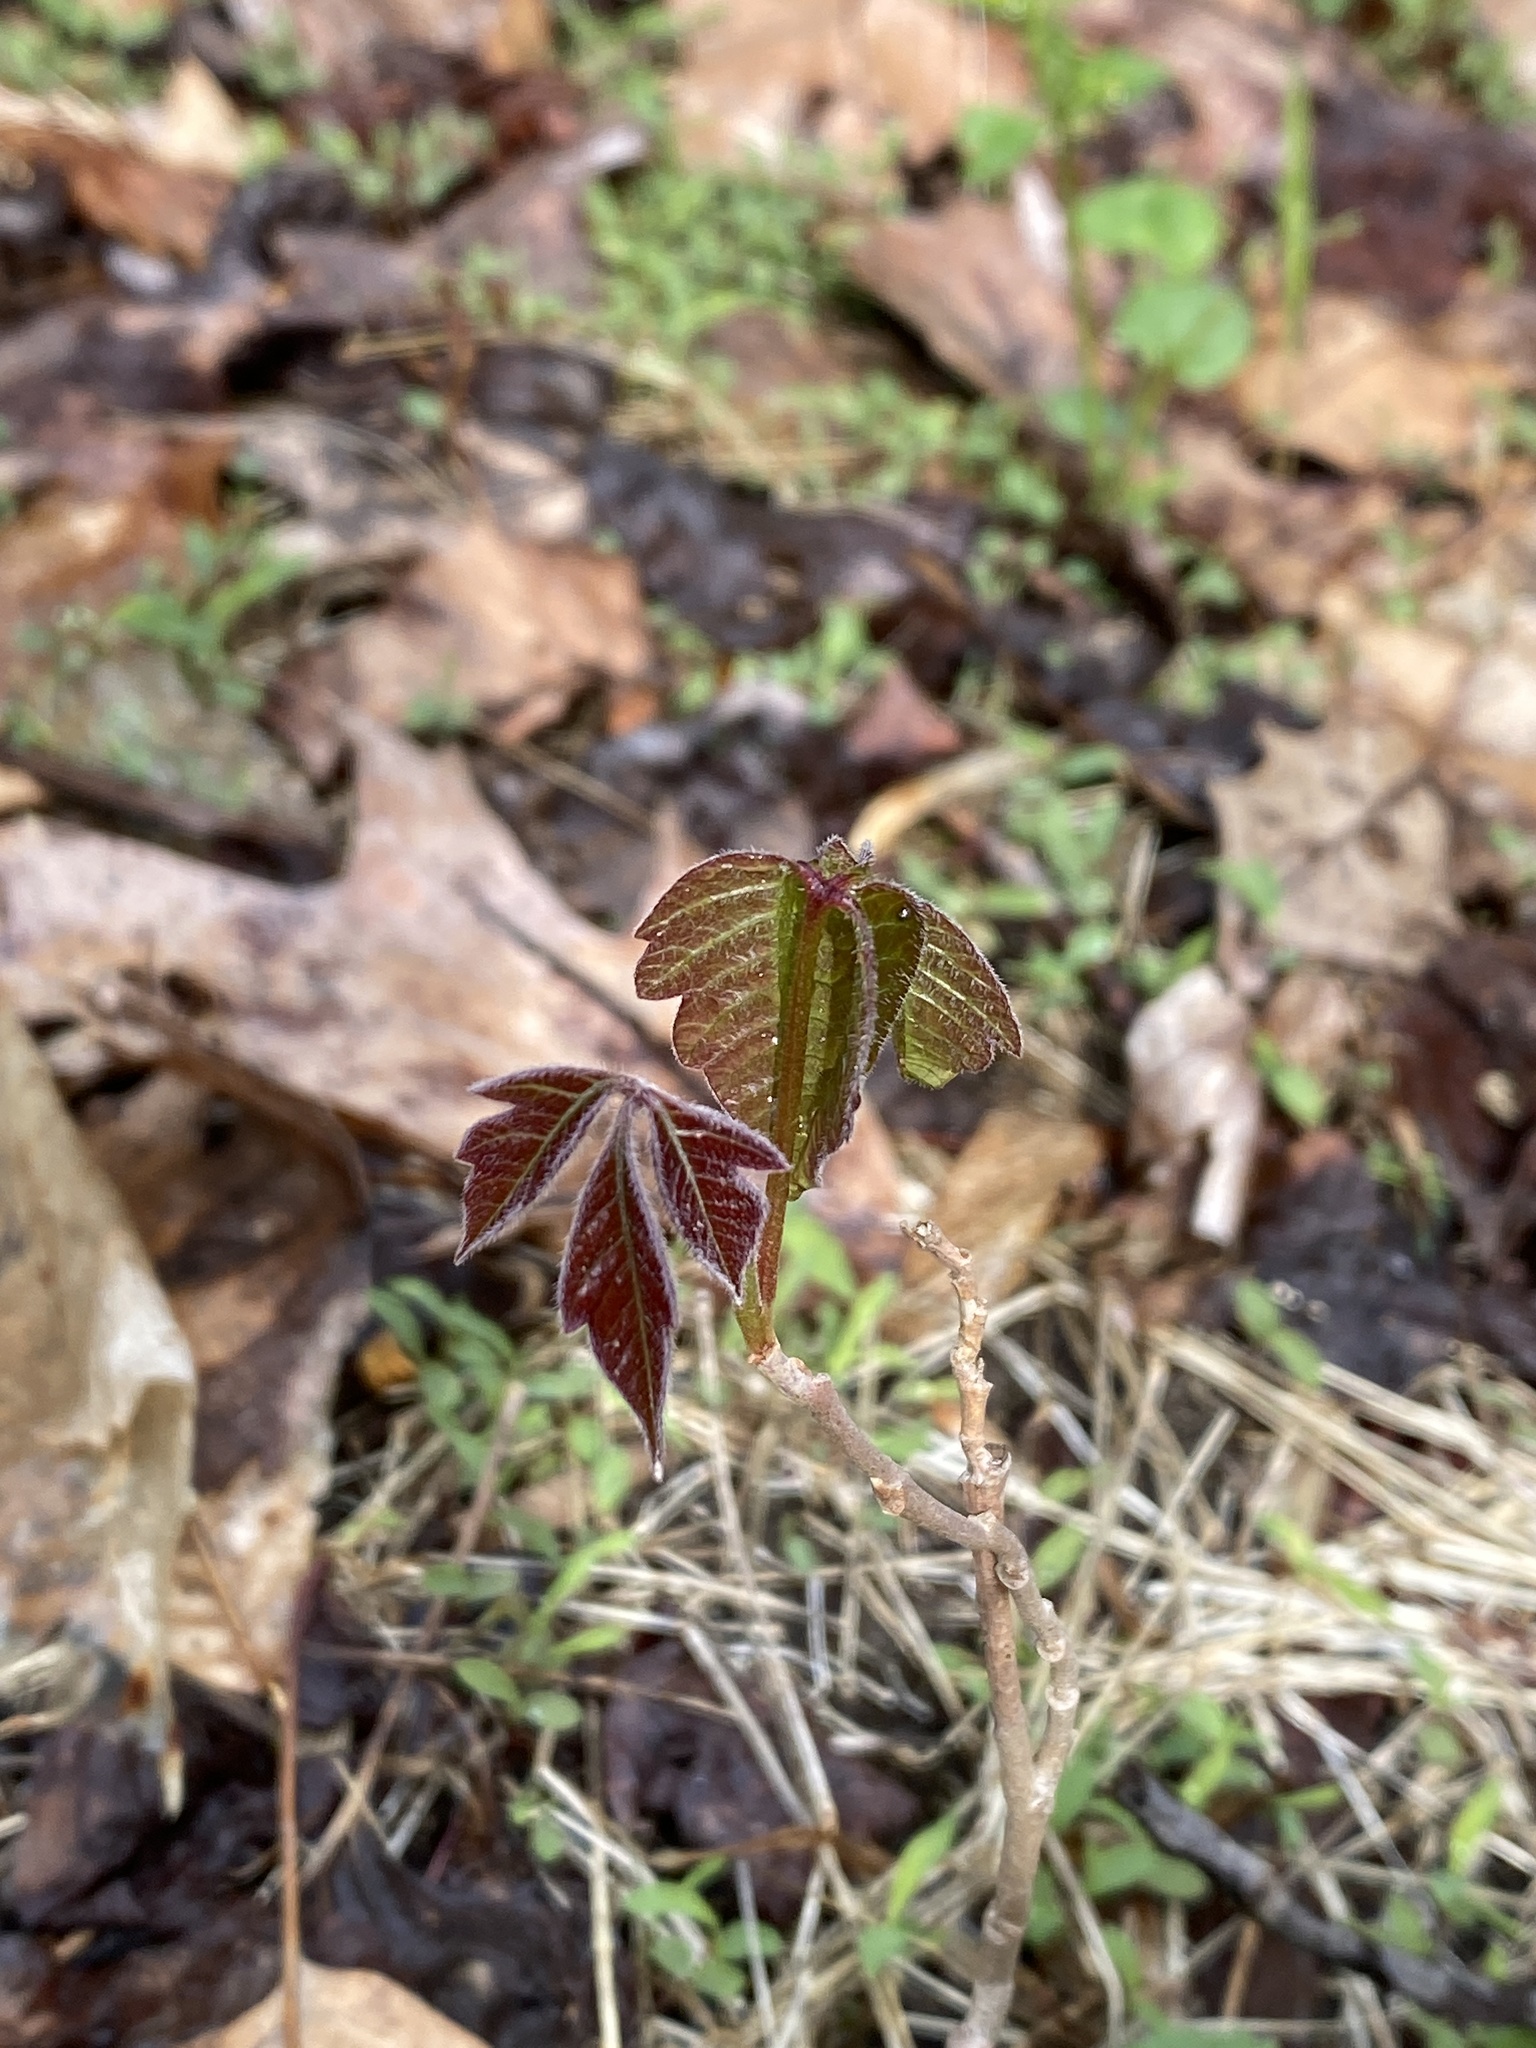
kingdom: Plantae
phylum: Tracheophyta
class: Magnoliopsida
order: Sapindales
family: Anacardiaceae
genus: Toxicodendron
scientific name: Toxicodendron radicans
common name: Poison ivy
